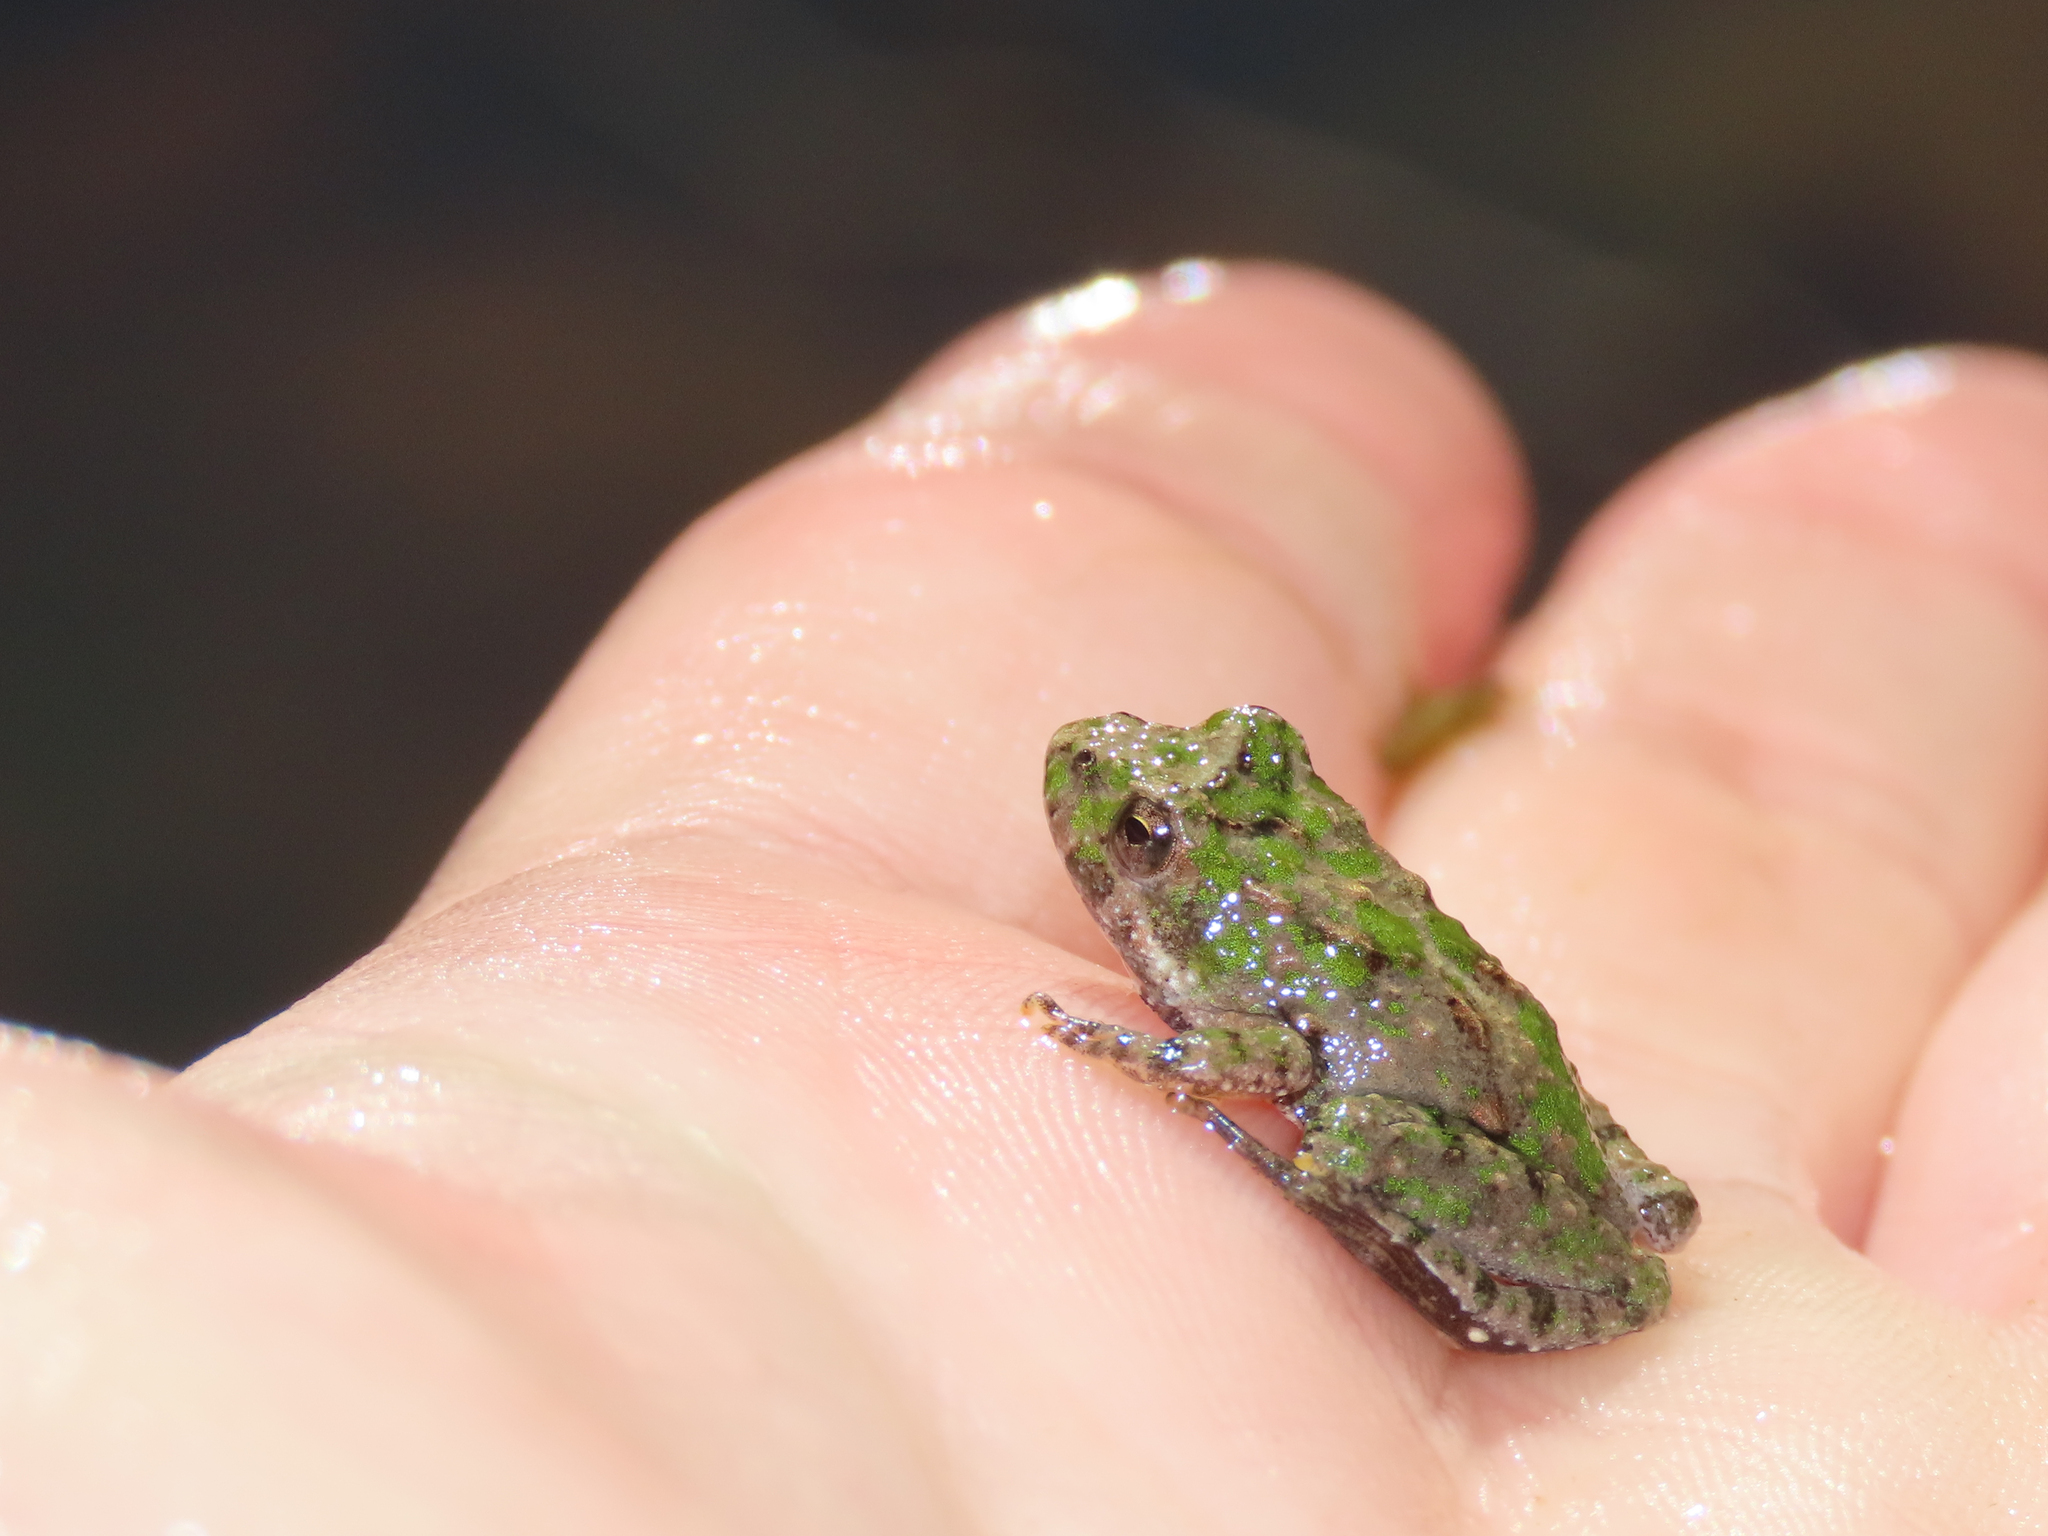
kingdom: Animalia
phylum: Chordata
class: Amphibia
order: Anura
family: Hylidae
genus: Acris
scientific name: Acris crepitans
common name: Northern cricket frog
